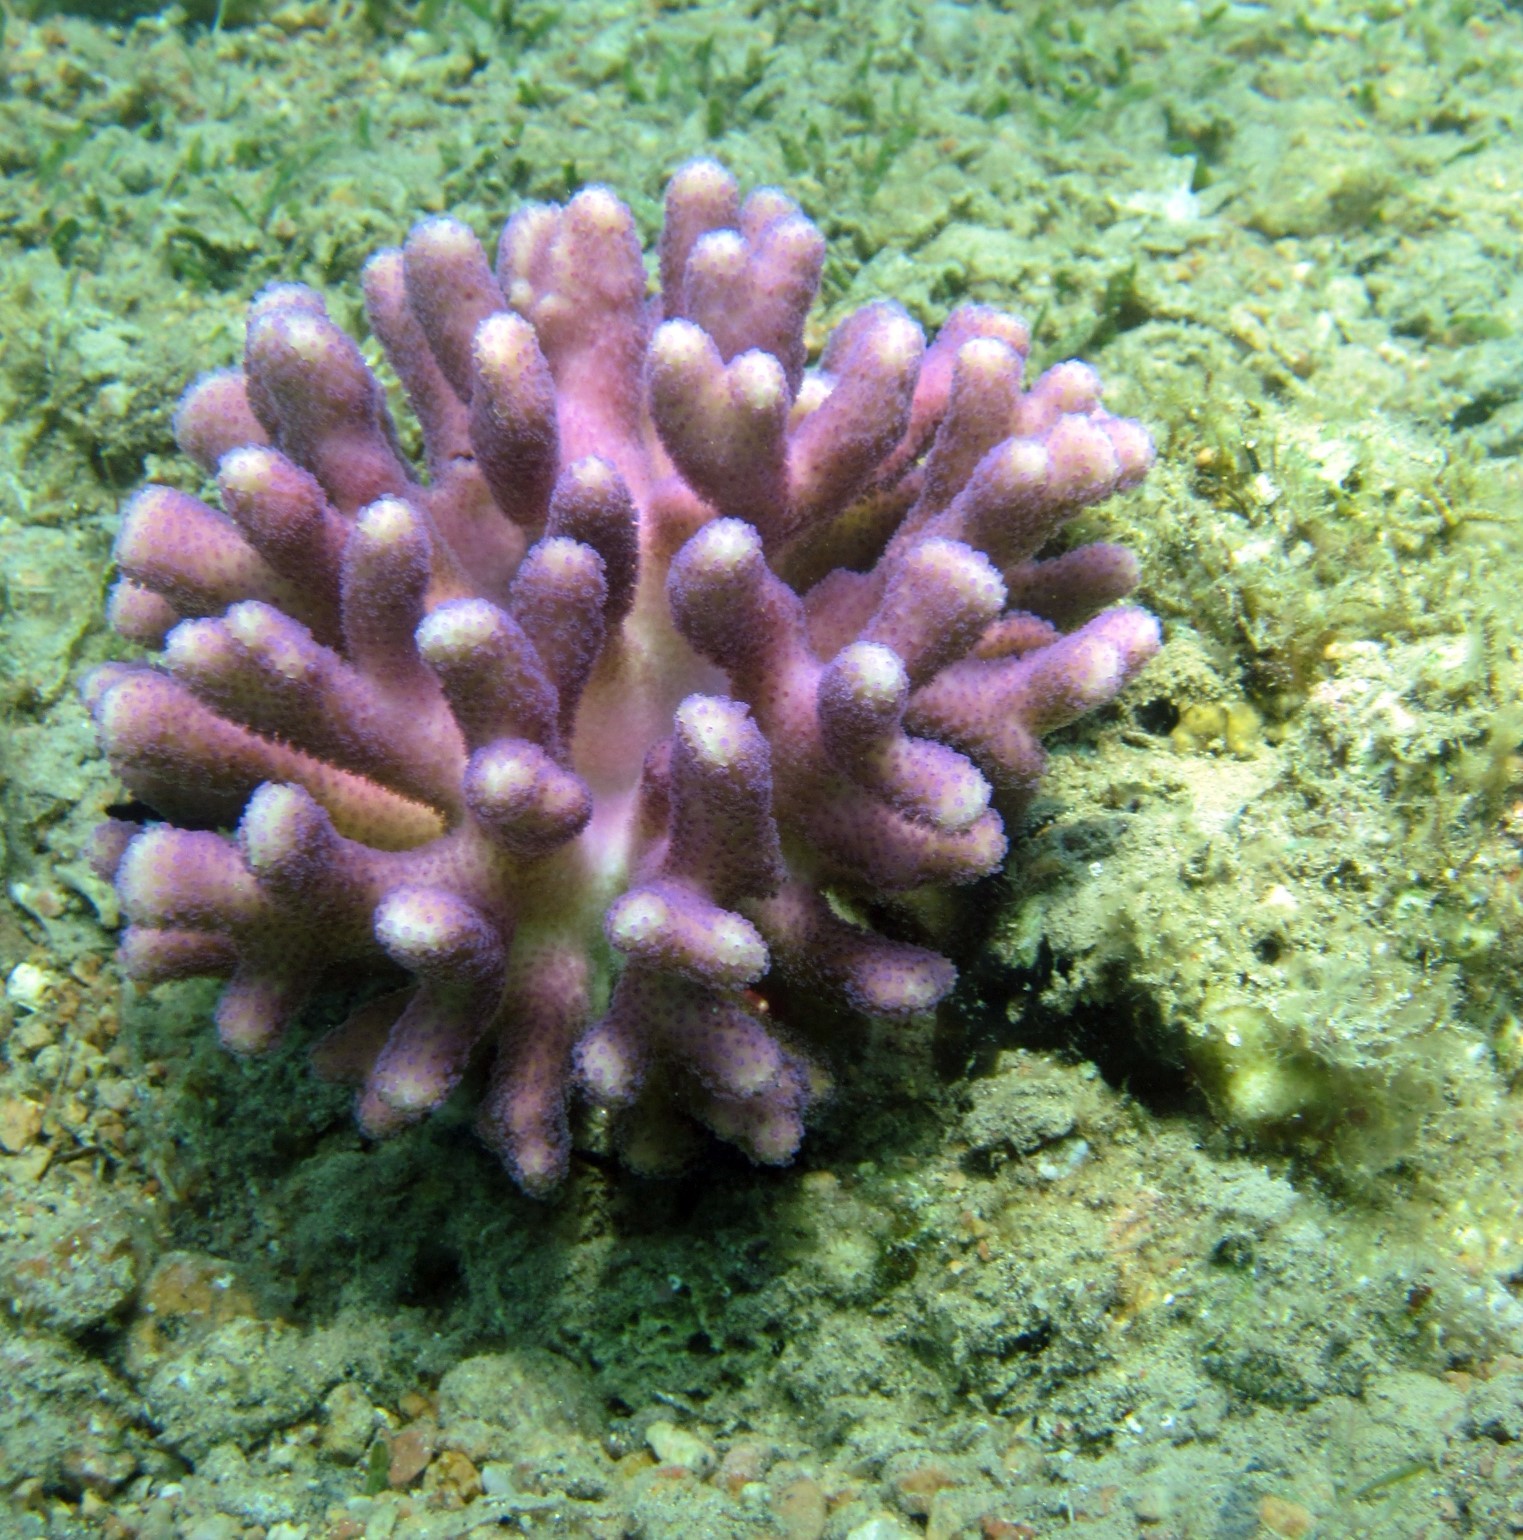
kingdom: Animalia
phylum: Cnidaria
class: Anthozoa
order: Scleractinia
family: Pocilloporidae
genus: Stylophora
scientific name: Stylophora pistillata
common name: Hood coral
